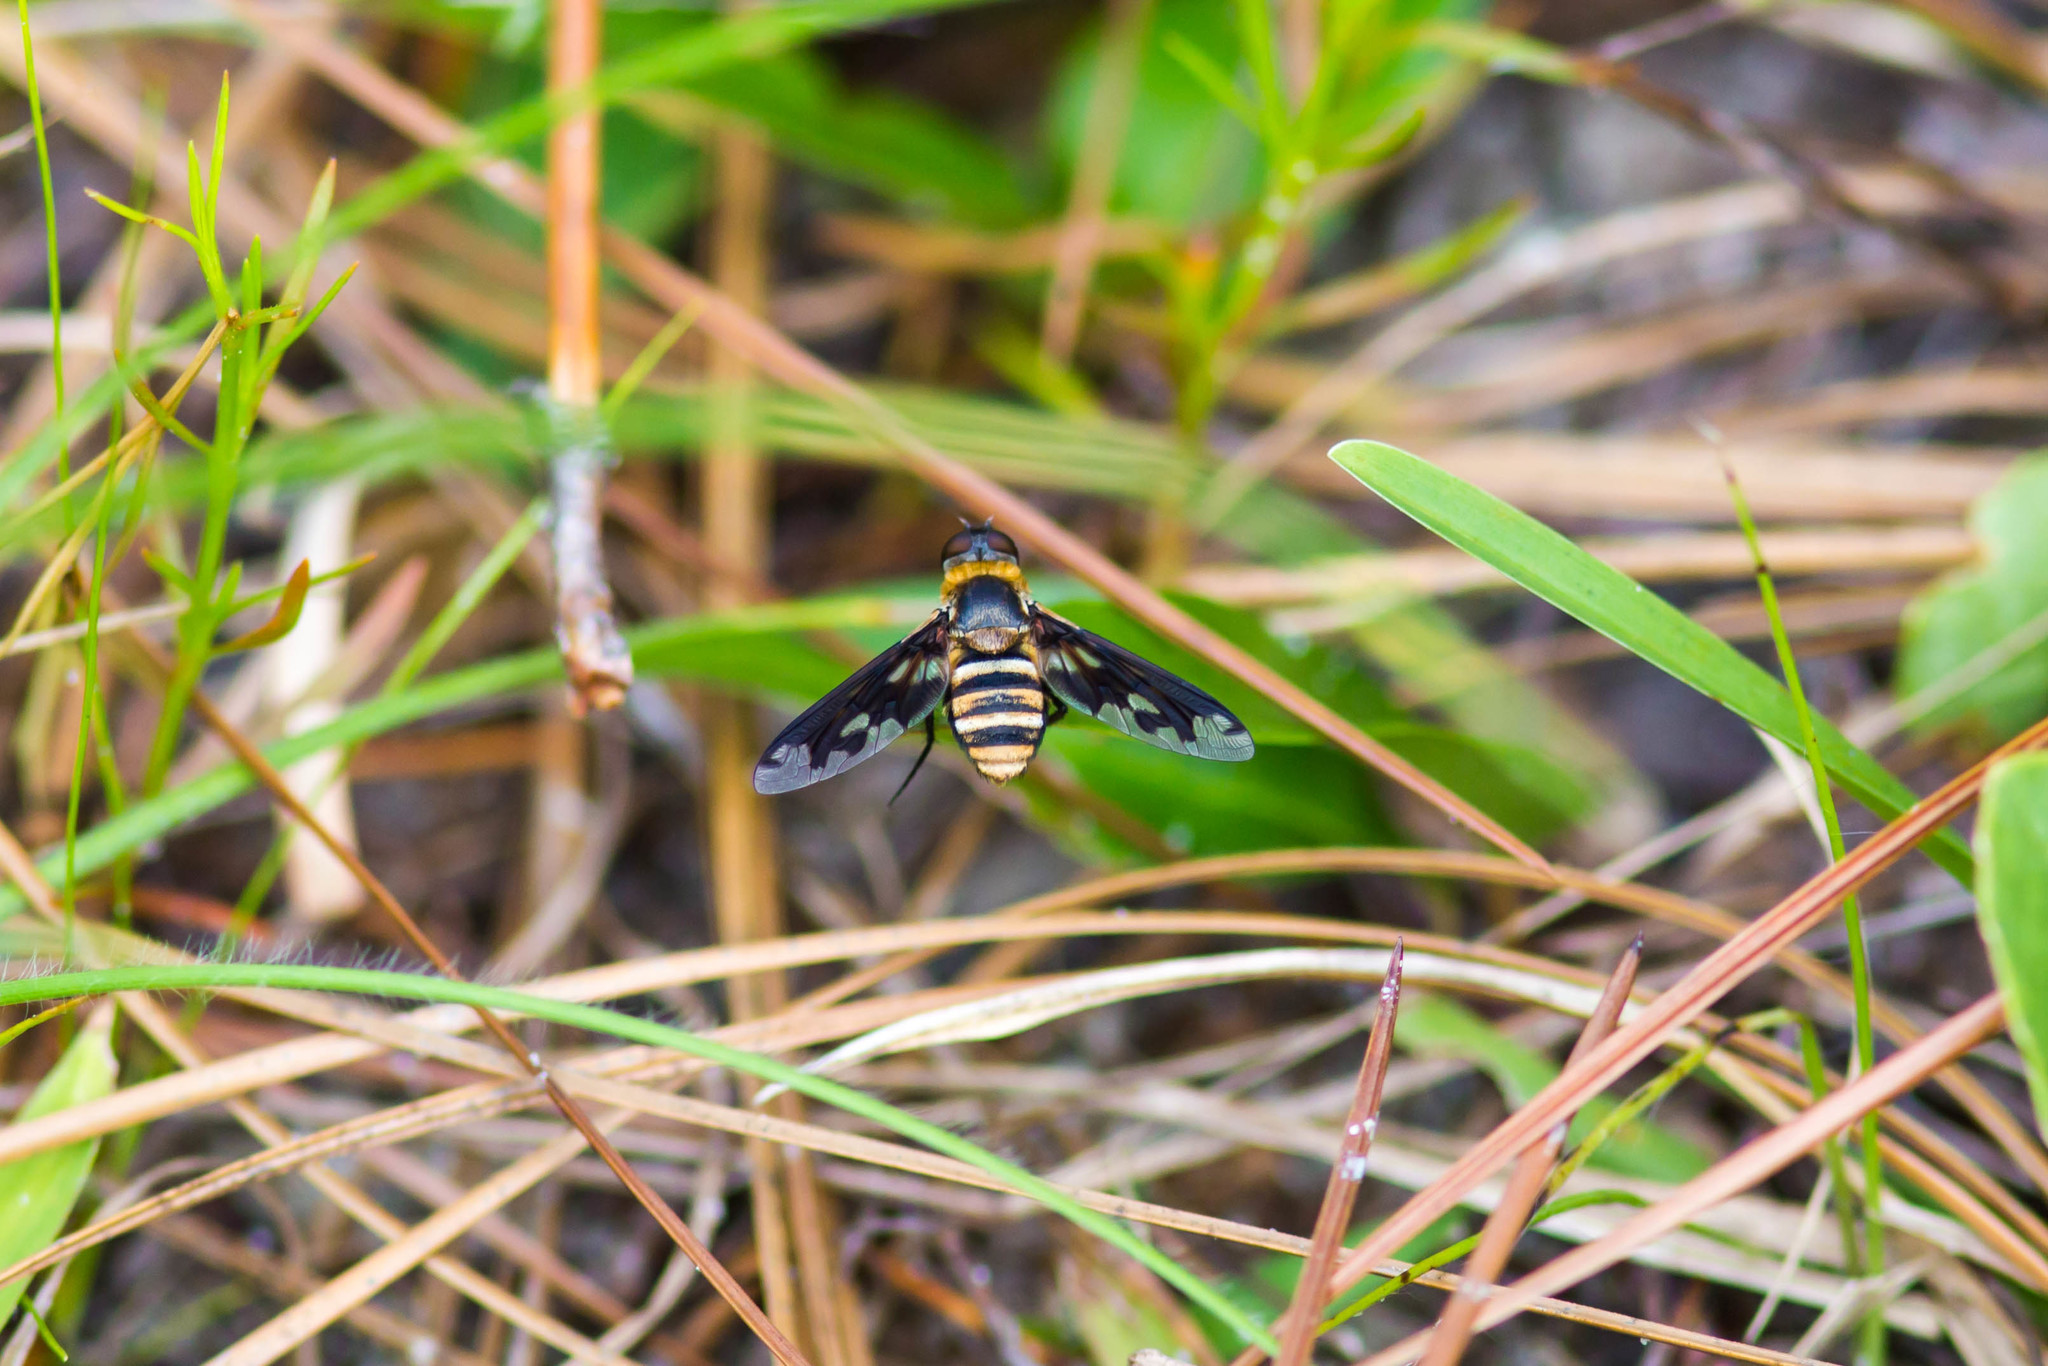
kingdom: Animalia
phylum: Arthropoda
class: Insecta
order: Diptera
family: Bombyliidae
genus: Exoprosopa
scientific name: Exoprosopa fascipennis
